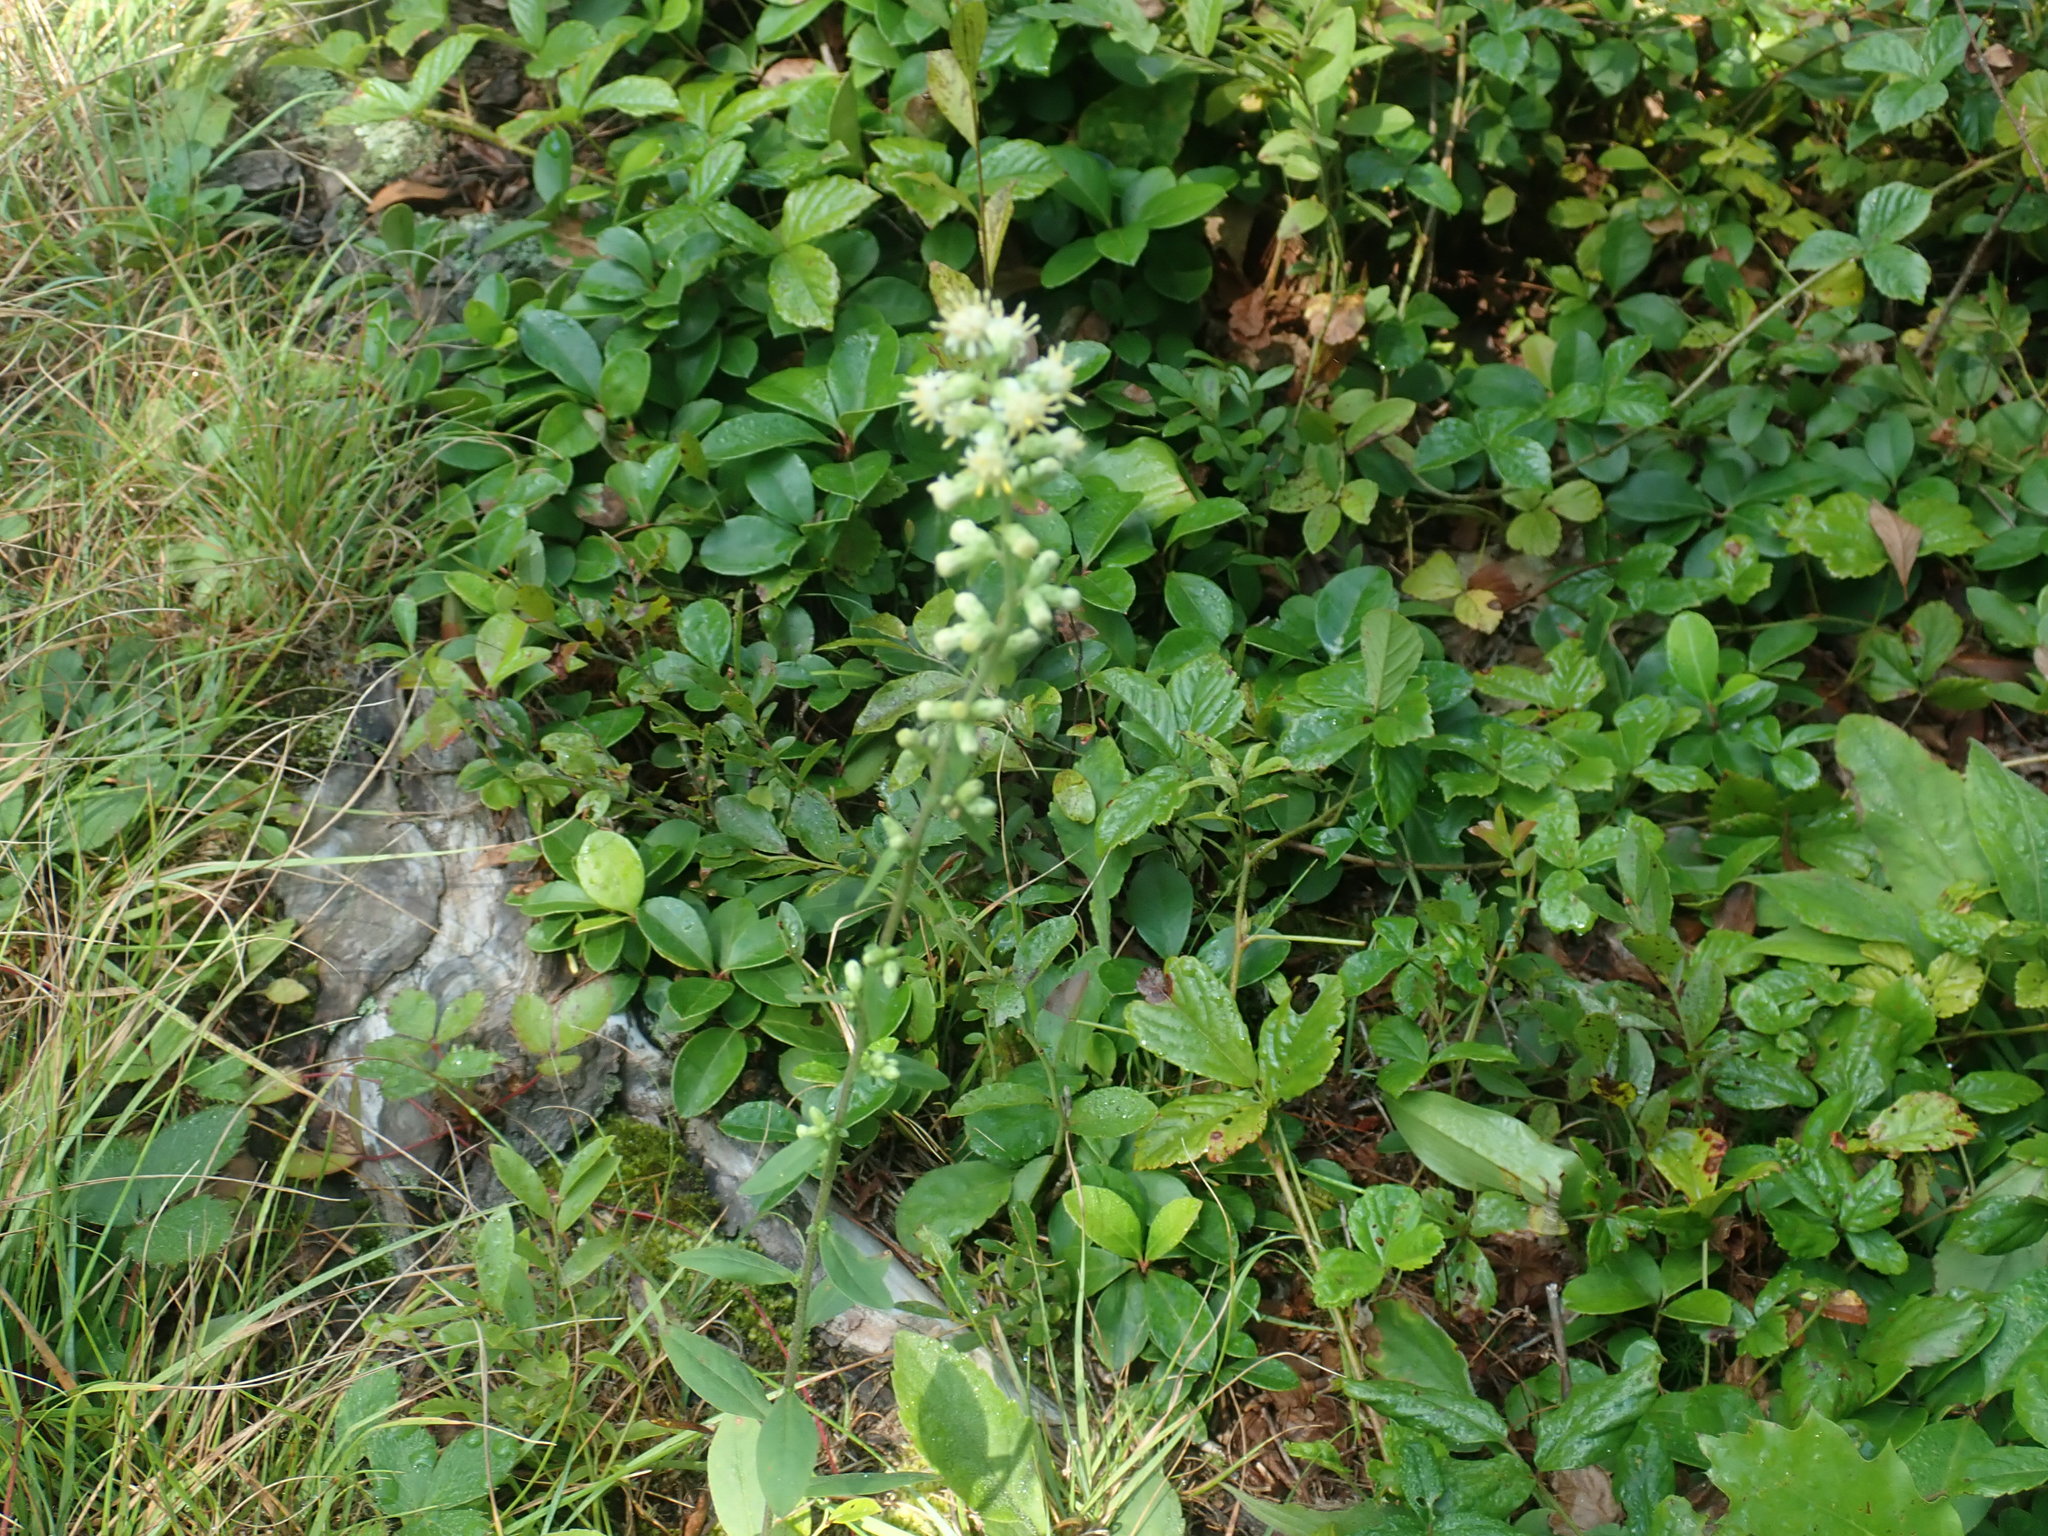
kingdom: Plantae
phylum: Tracheophyta
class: Magnoliopsida
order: Asterales
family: Asteraceae
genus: Solidago
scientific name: Solidago bicolor
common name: Silverrod
